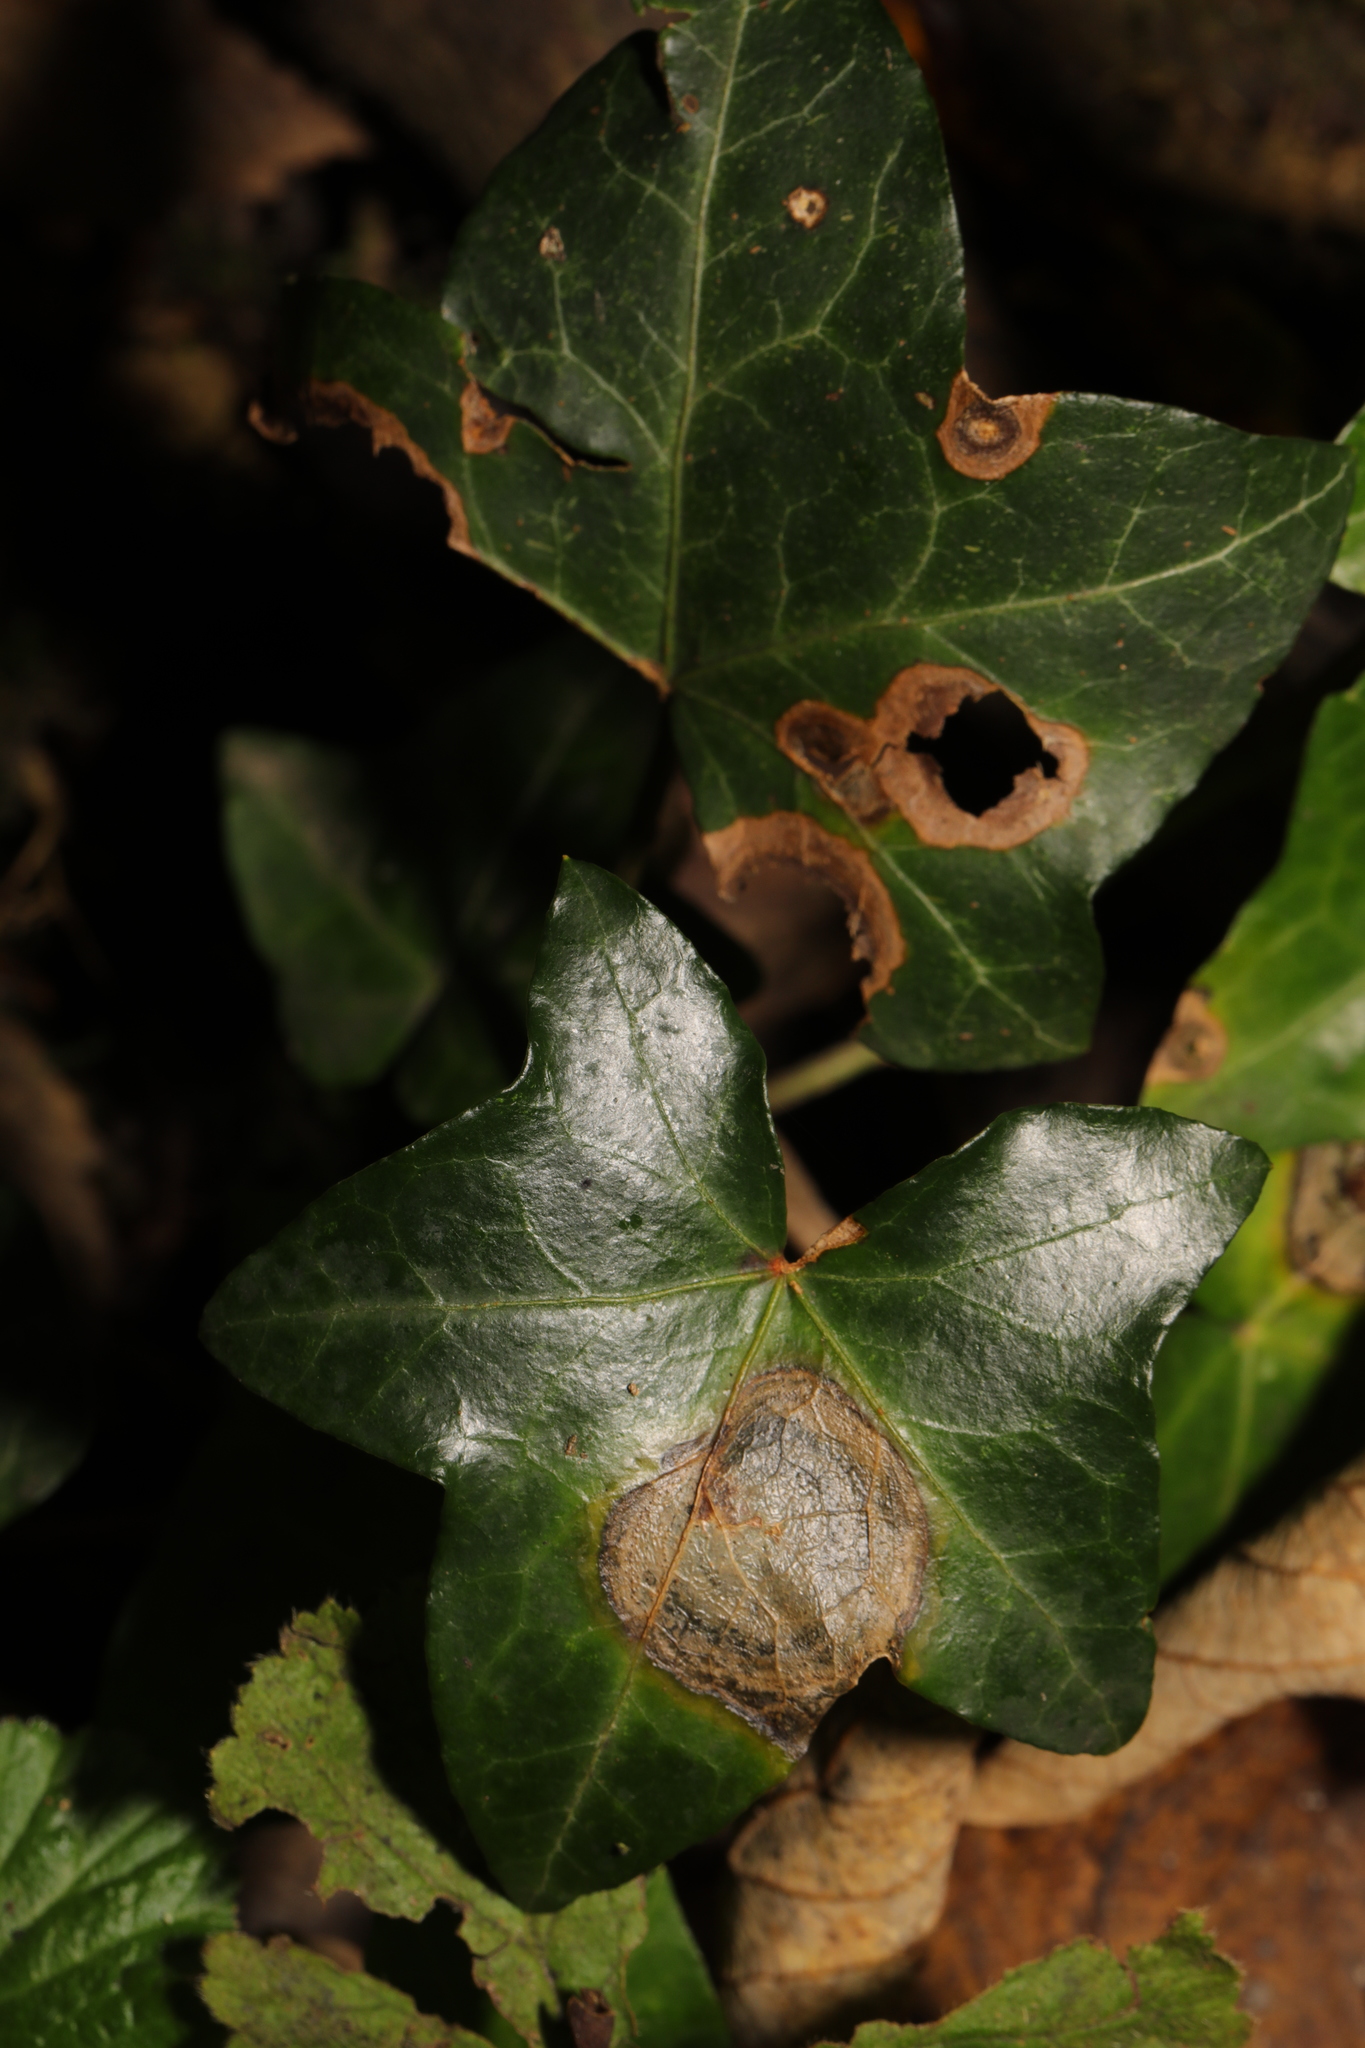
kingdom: Plantae
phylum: Tracheophyta
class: Magnoliopsida
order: Apiales
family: Araliaceae
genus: Hedera
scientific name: Hedera helix
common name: Ivy
